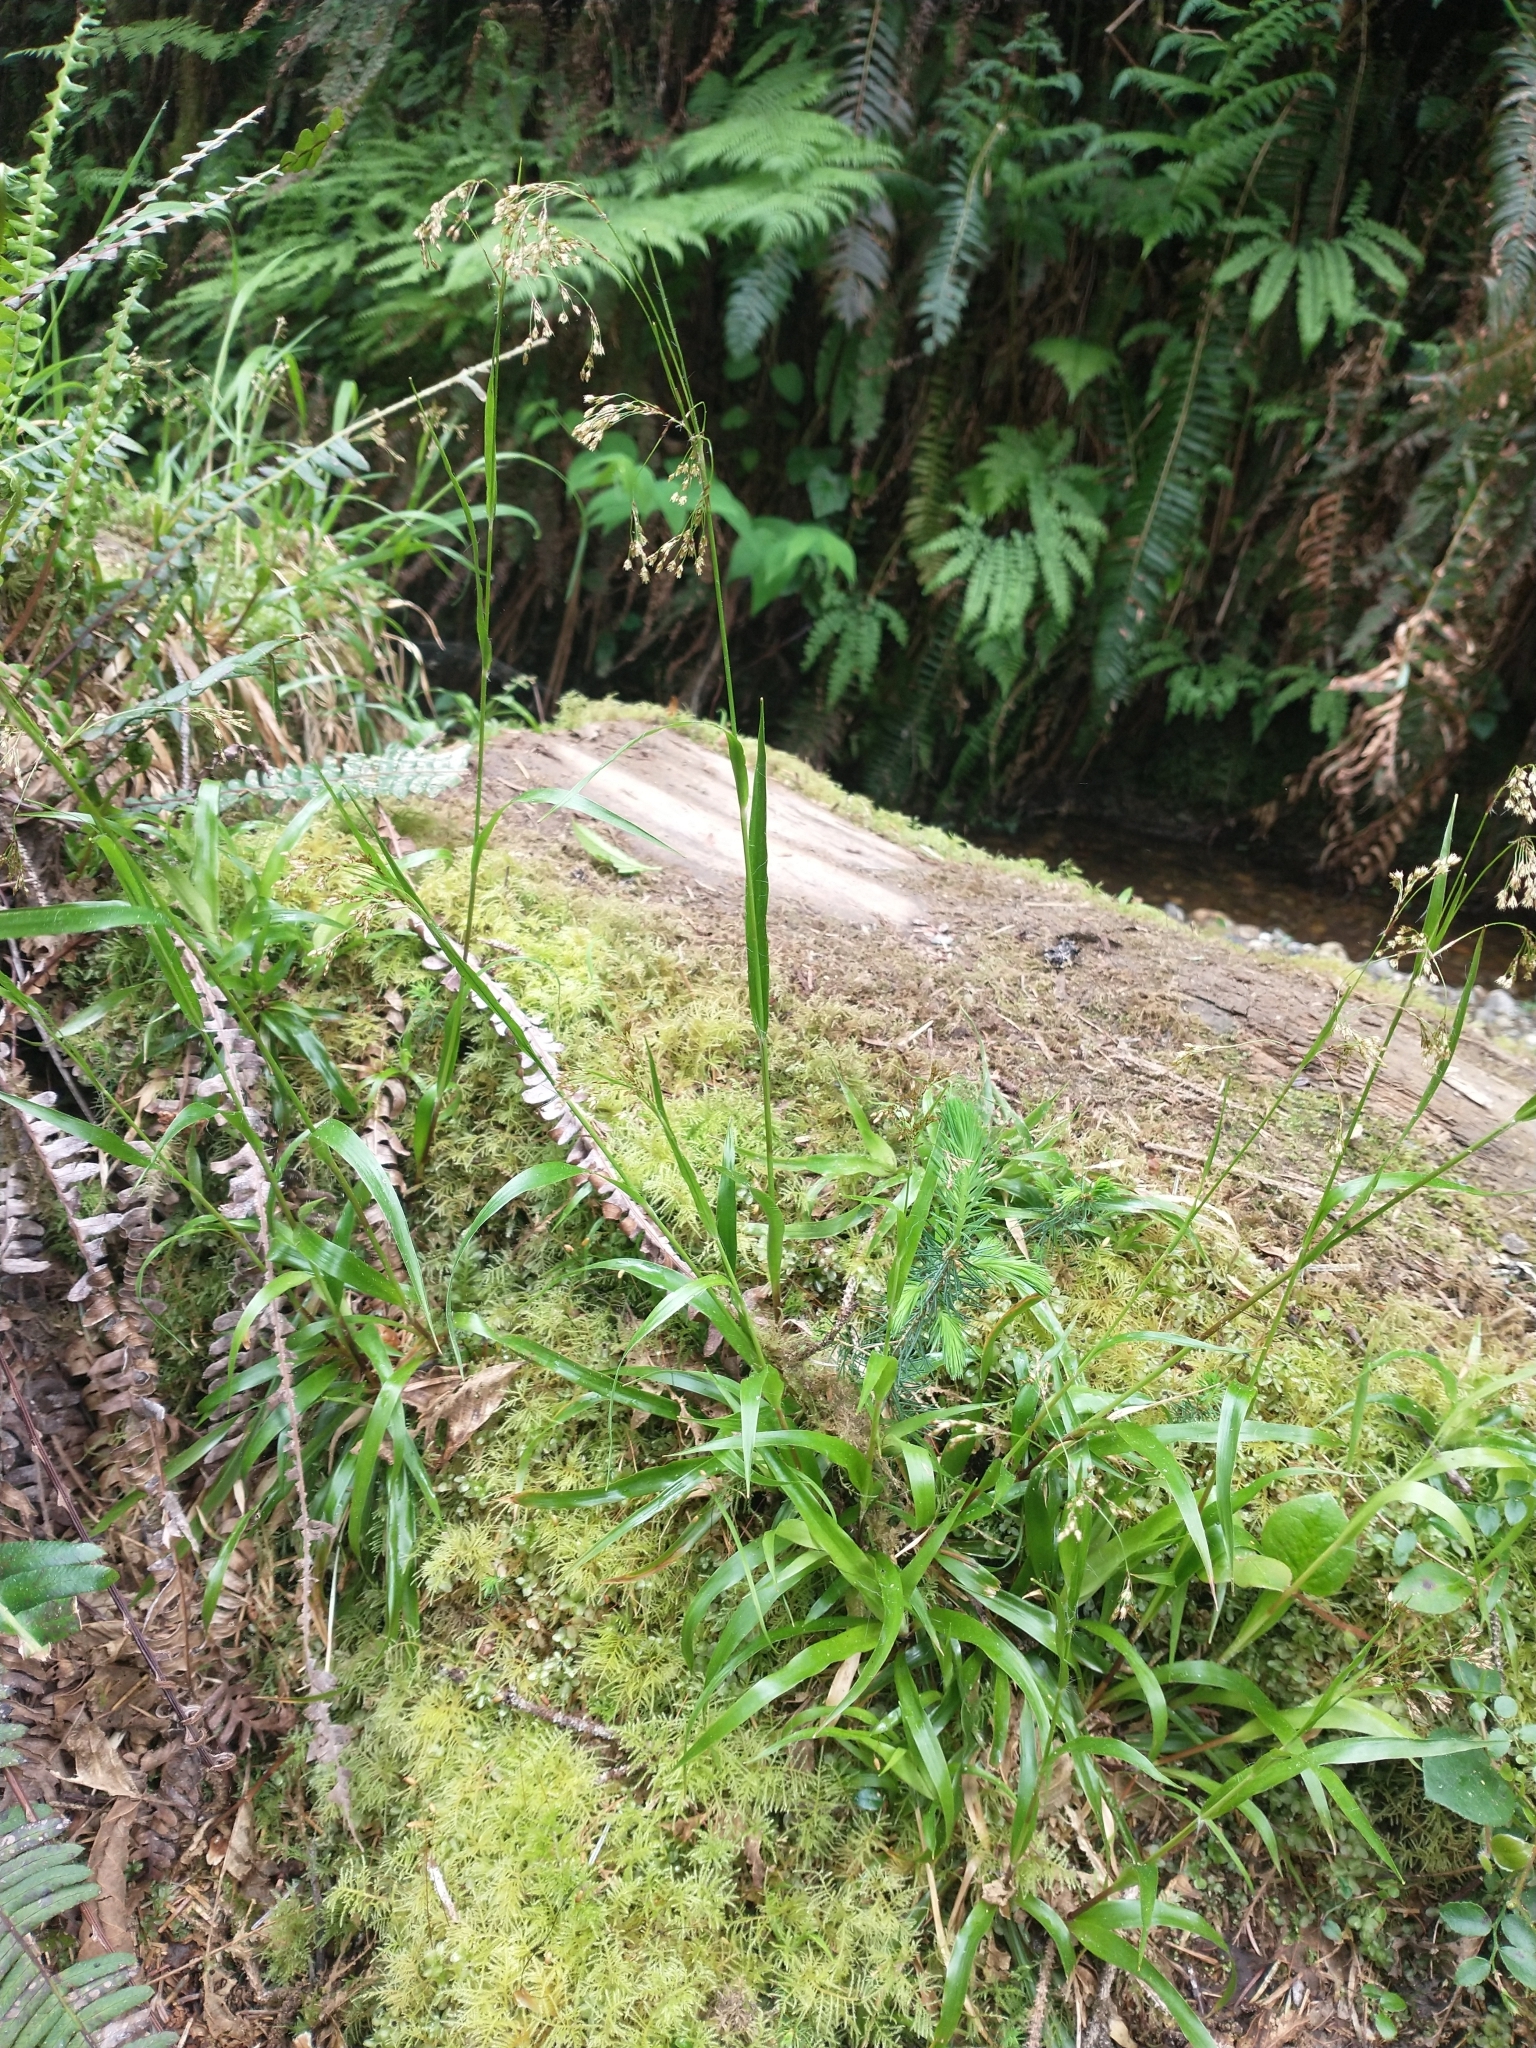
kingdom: Plantae
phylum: Tracheophyta
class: Liliopsida
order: Poales
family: Juncaceae
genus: Luzula
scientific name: Luzula parviflora
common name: Millet woodrush
